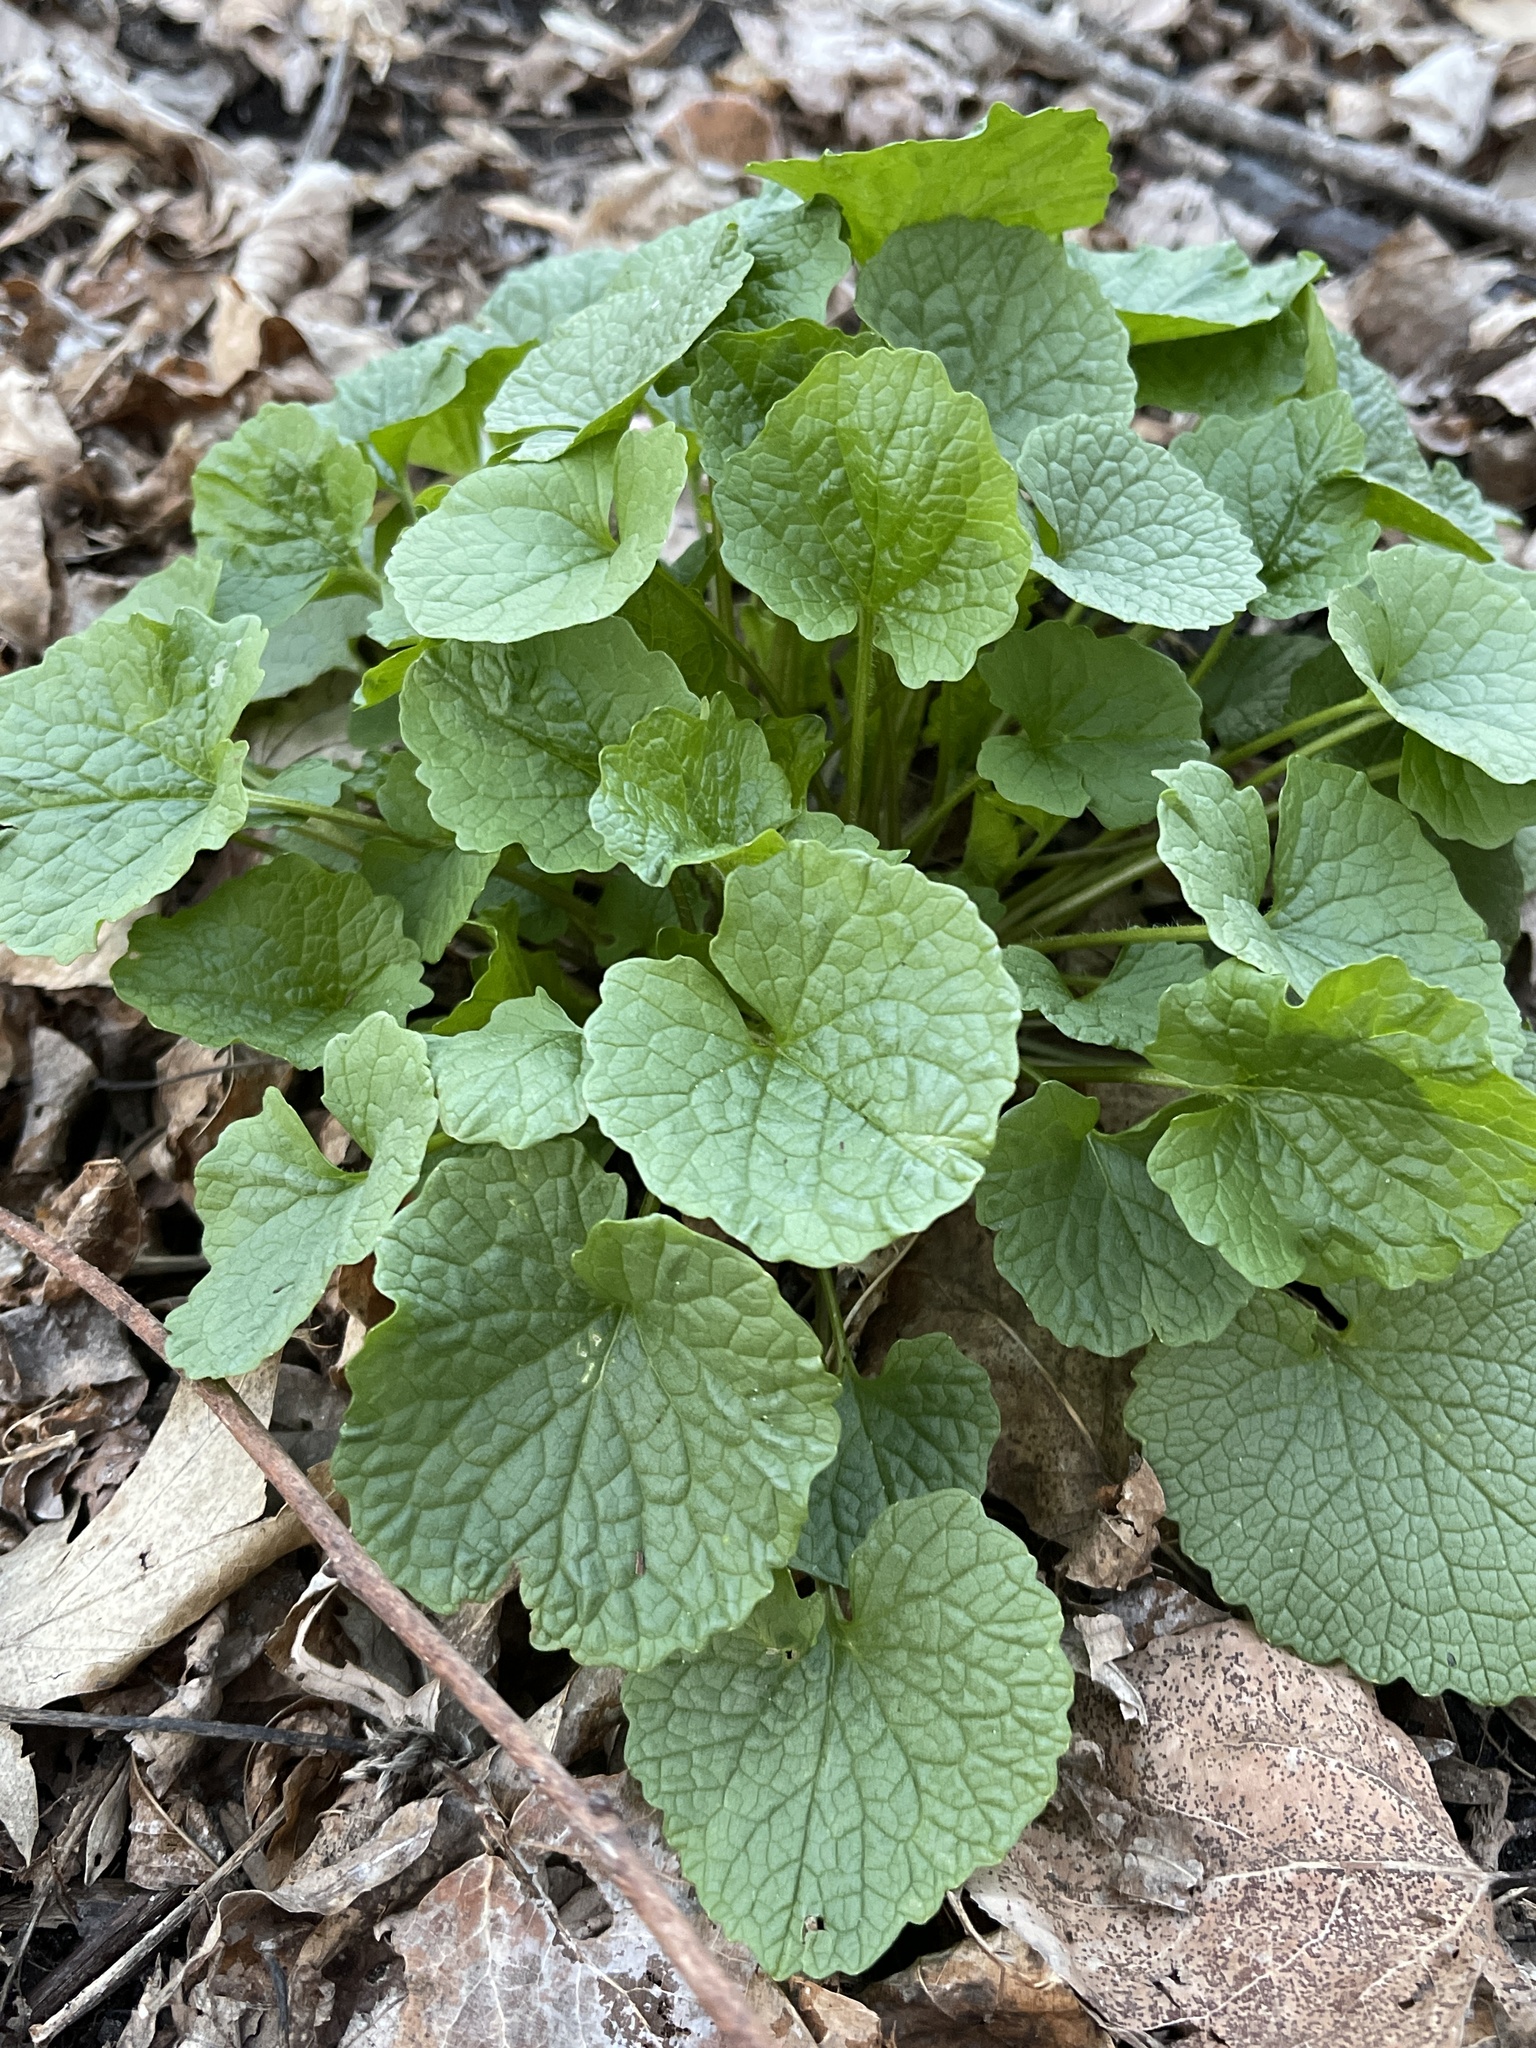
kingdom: Plantae
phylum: Tracheophyta
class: Magnoliopsida
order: Brassicales
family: Brassicaceae
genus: Alliaria
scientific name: Alliaria petiolata
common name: Garlic mustard
